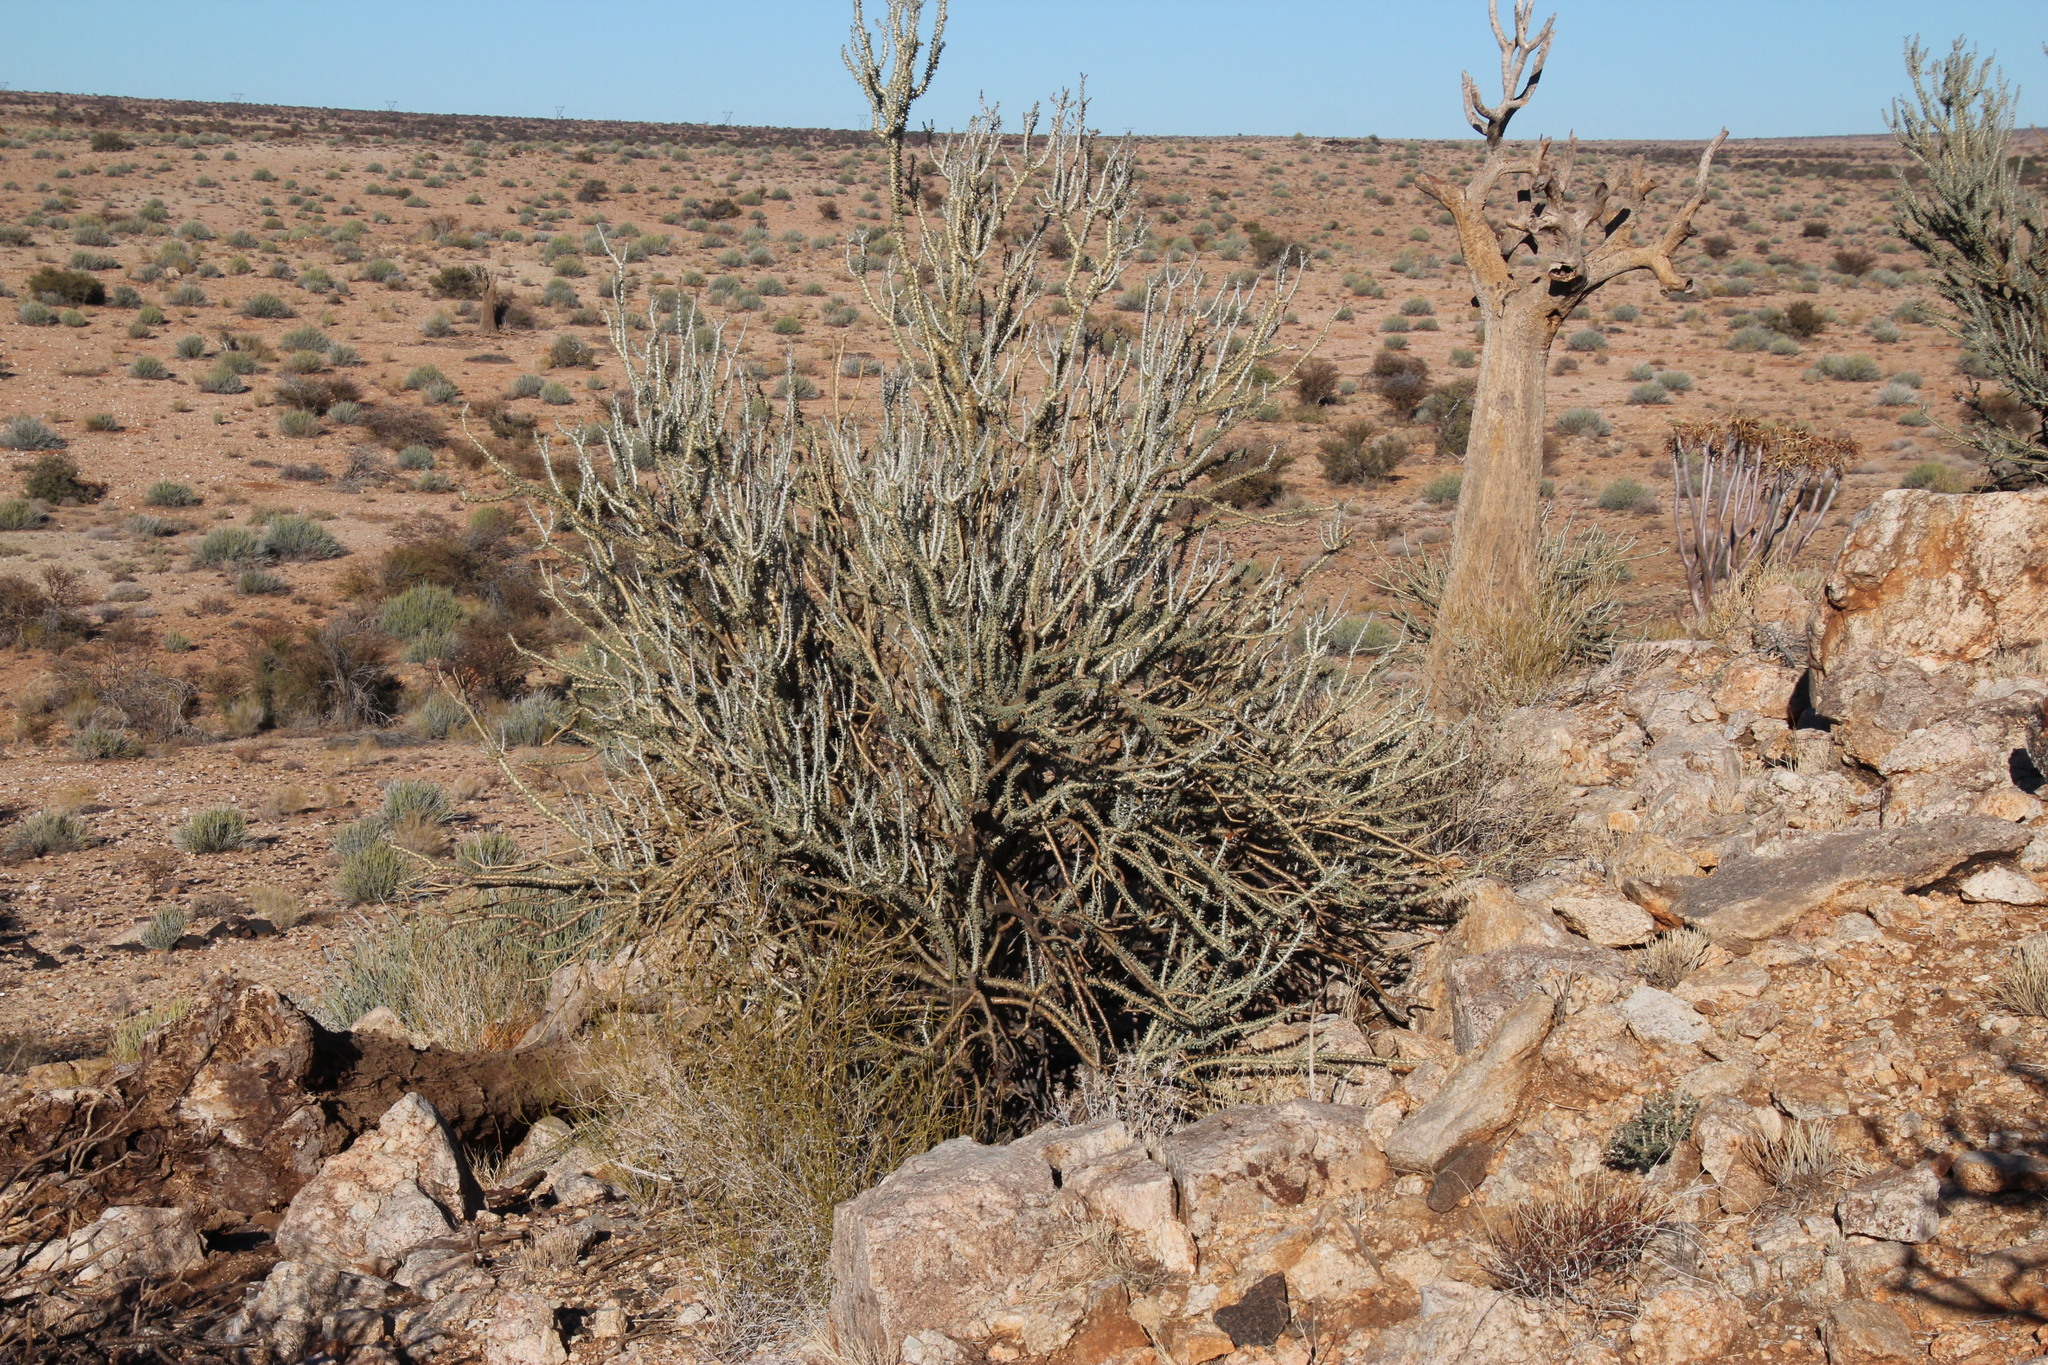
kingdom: Plantae
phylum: Tracheophyta
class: Magnoliopsida
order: Caryophyllales
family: Didiereaceae
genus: Portulacaria
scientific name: Portulacaria namaquensis
